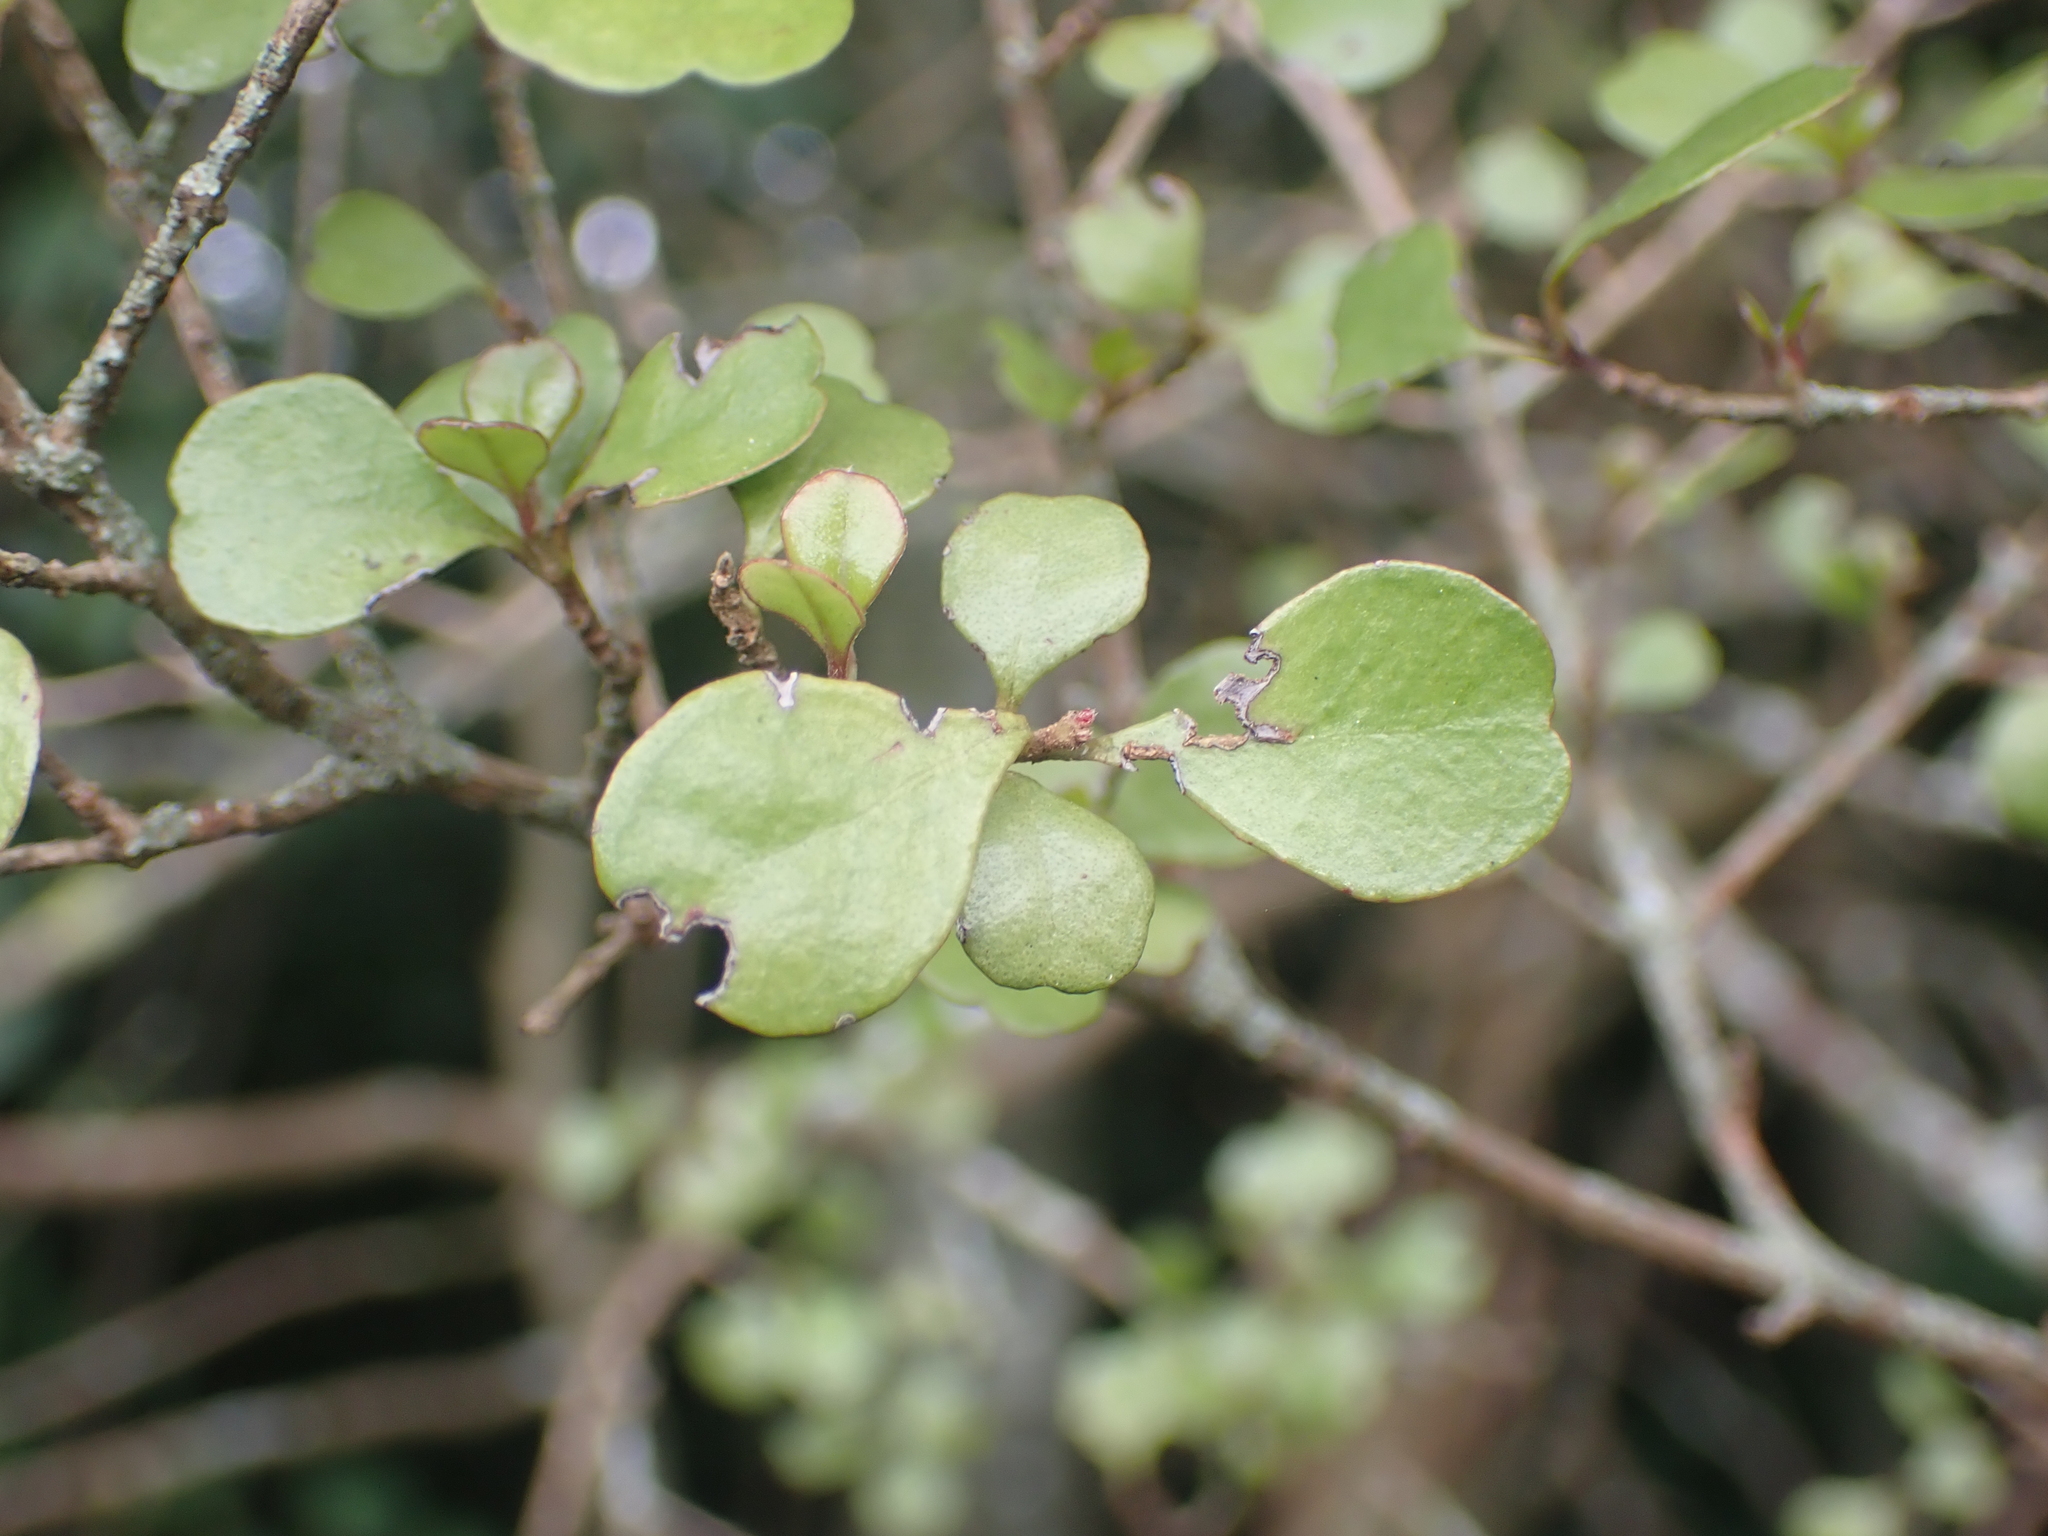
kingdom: Plantae
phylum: Tracheophyta
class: Magnoliopsida
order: Myrtales
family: Myrtaceae
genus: Lophomyrtus
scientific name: Lophomyrtus obcordata
